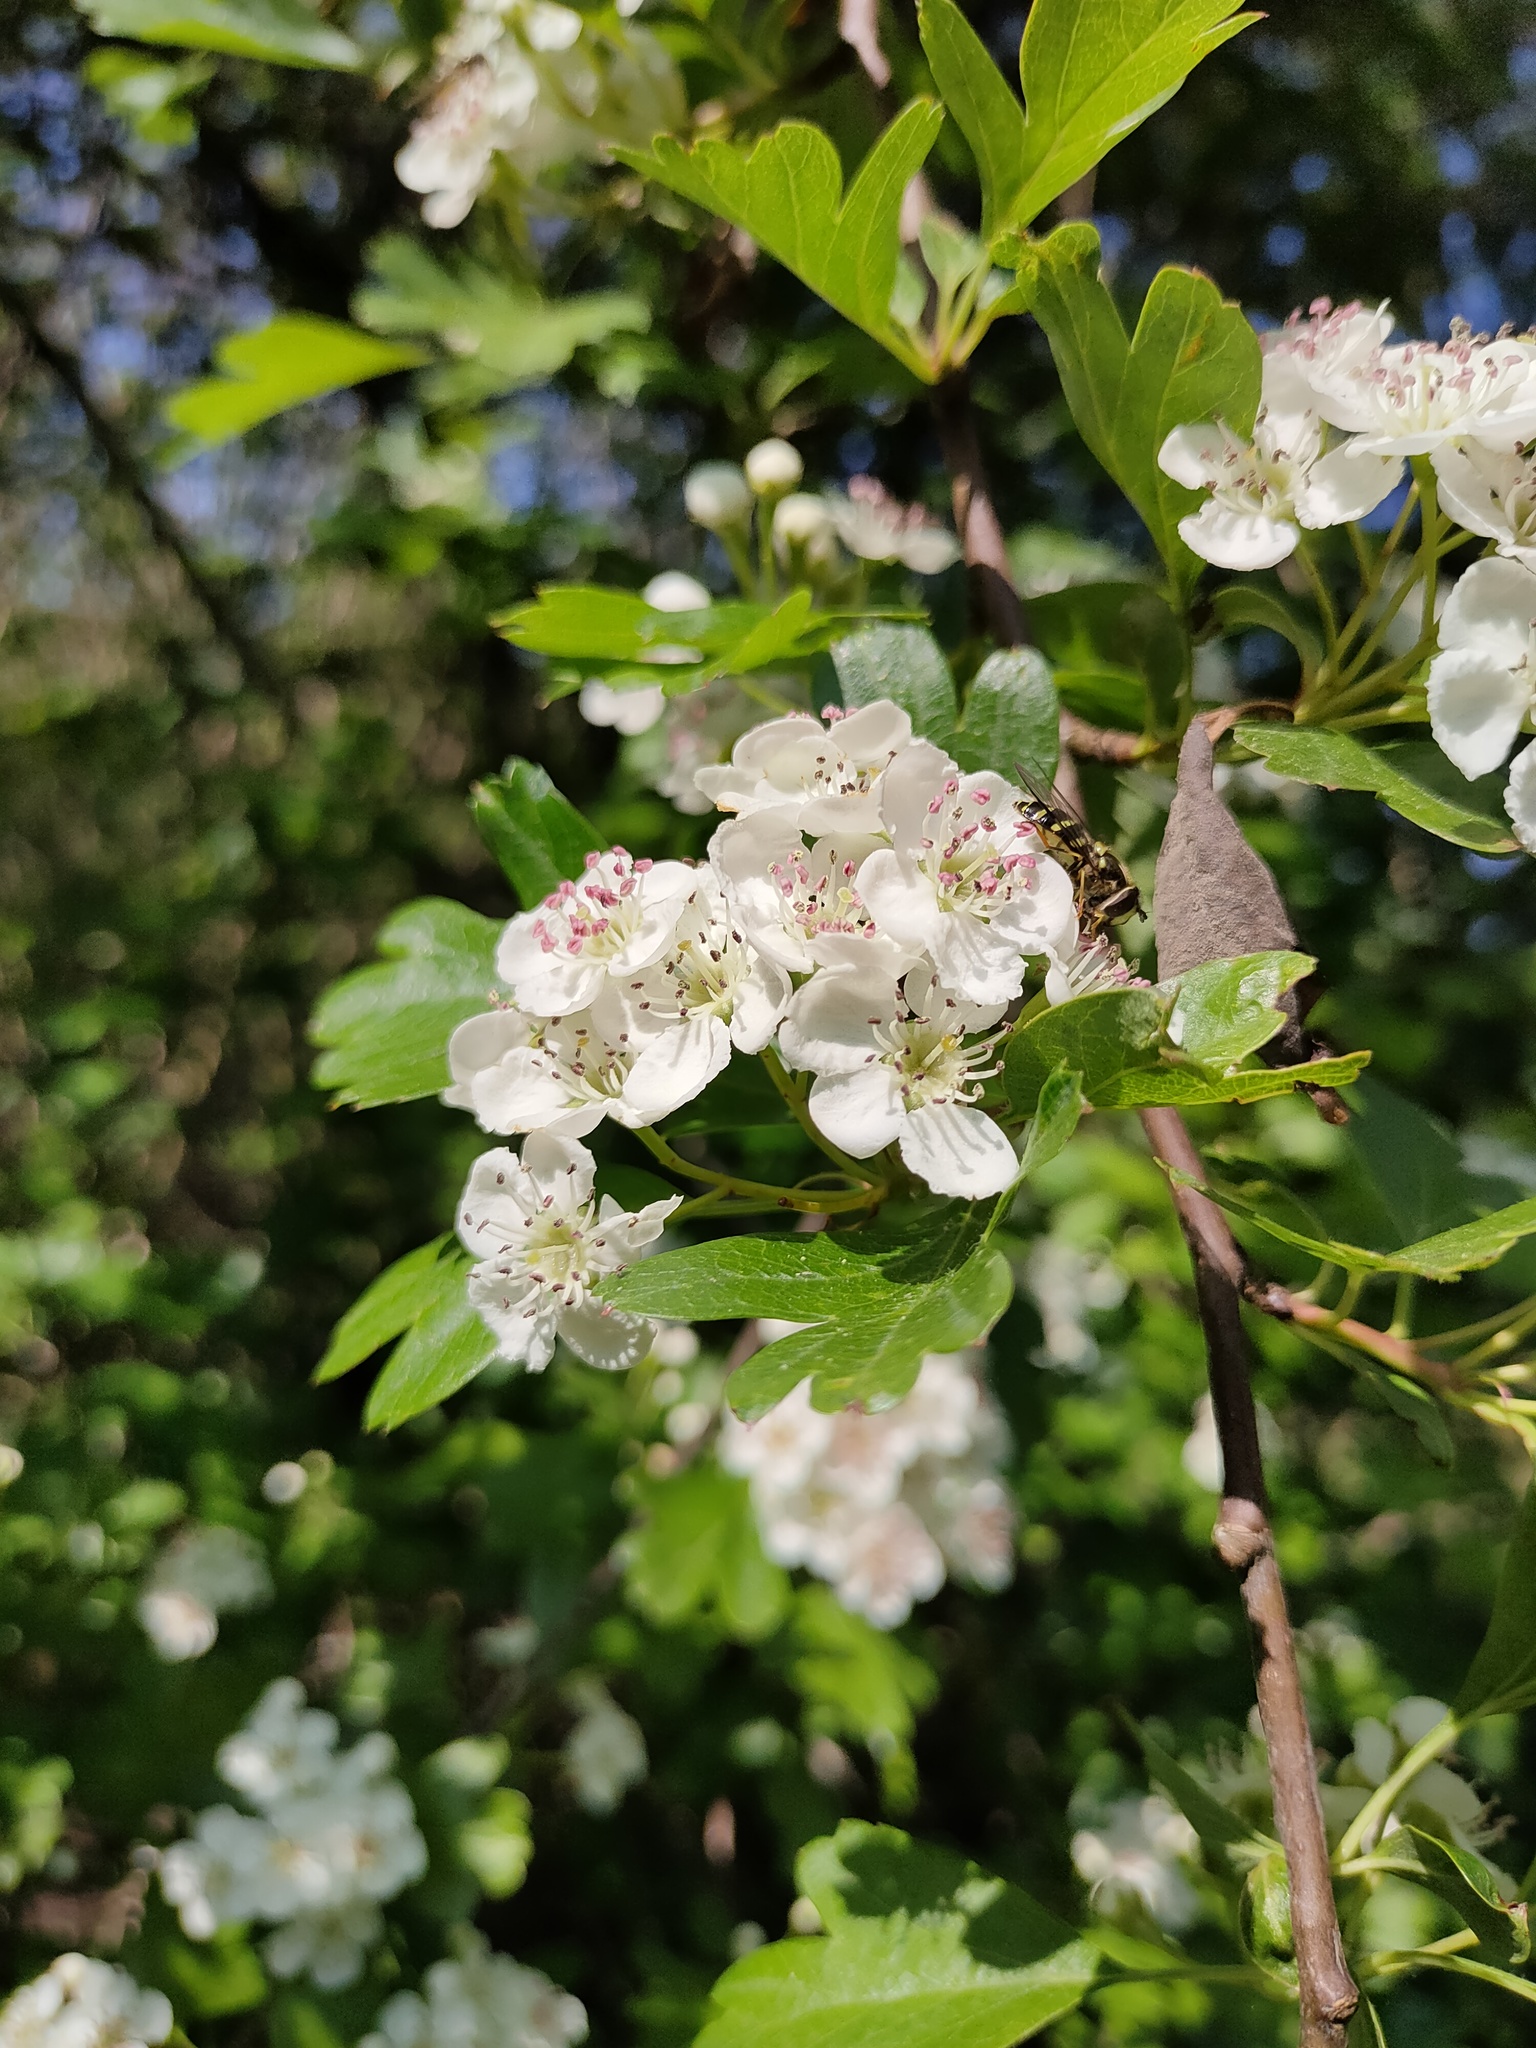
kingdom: Animalia
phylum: Arthropoda
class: Insecta
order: Diptera
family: Syrphidae
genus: Dasysyrphus
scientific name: Dasysyrphus albostriatus
